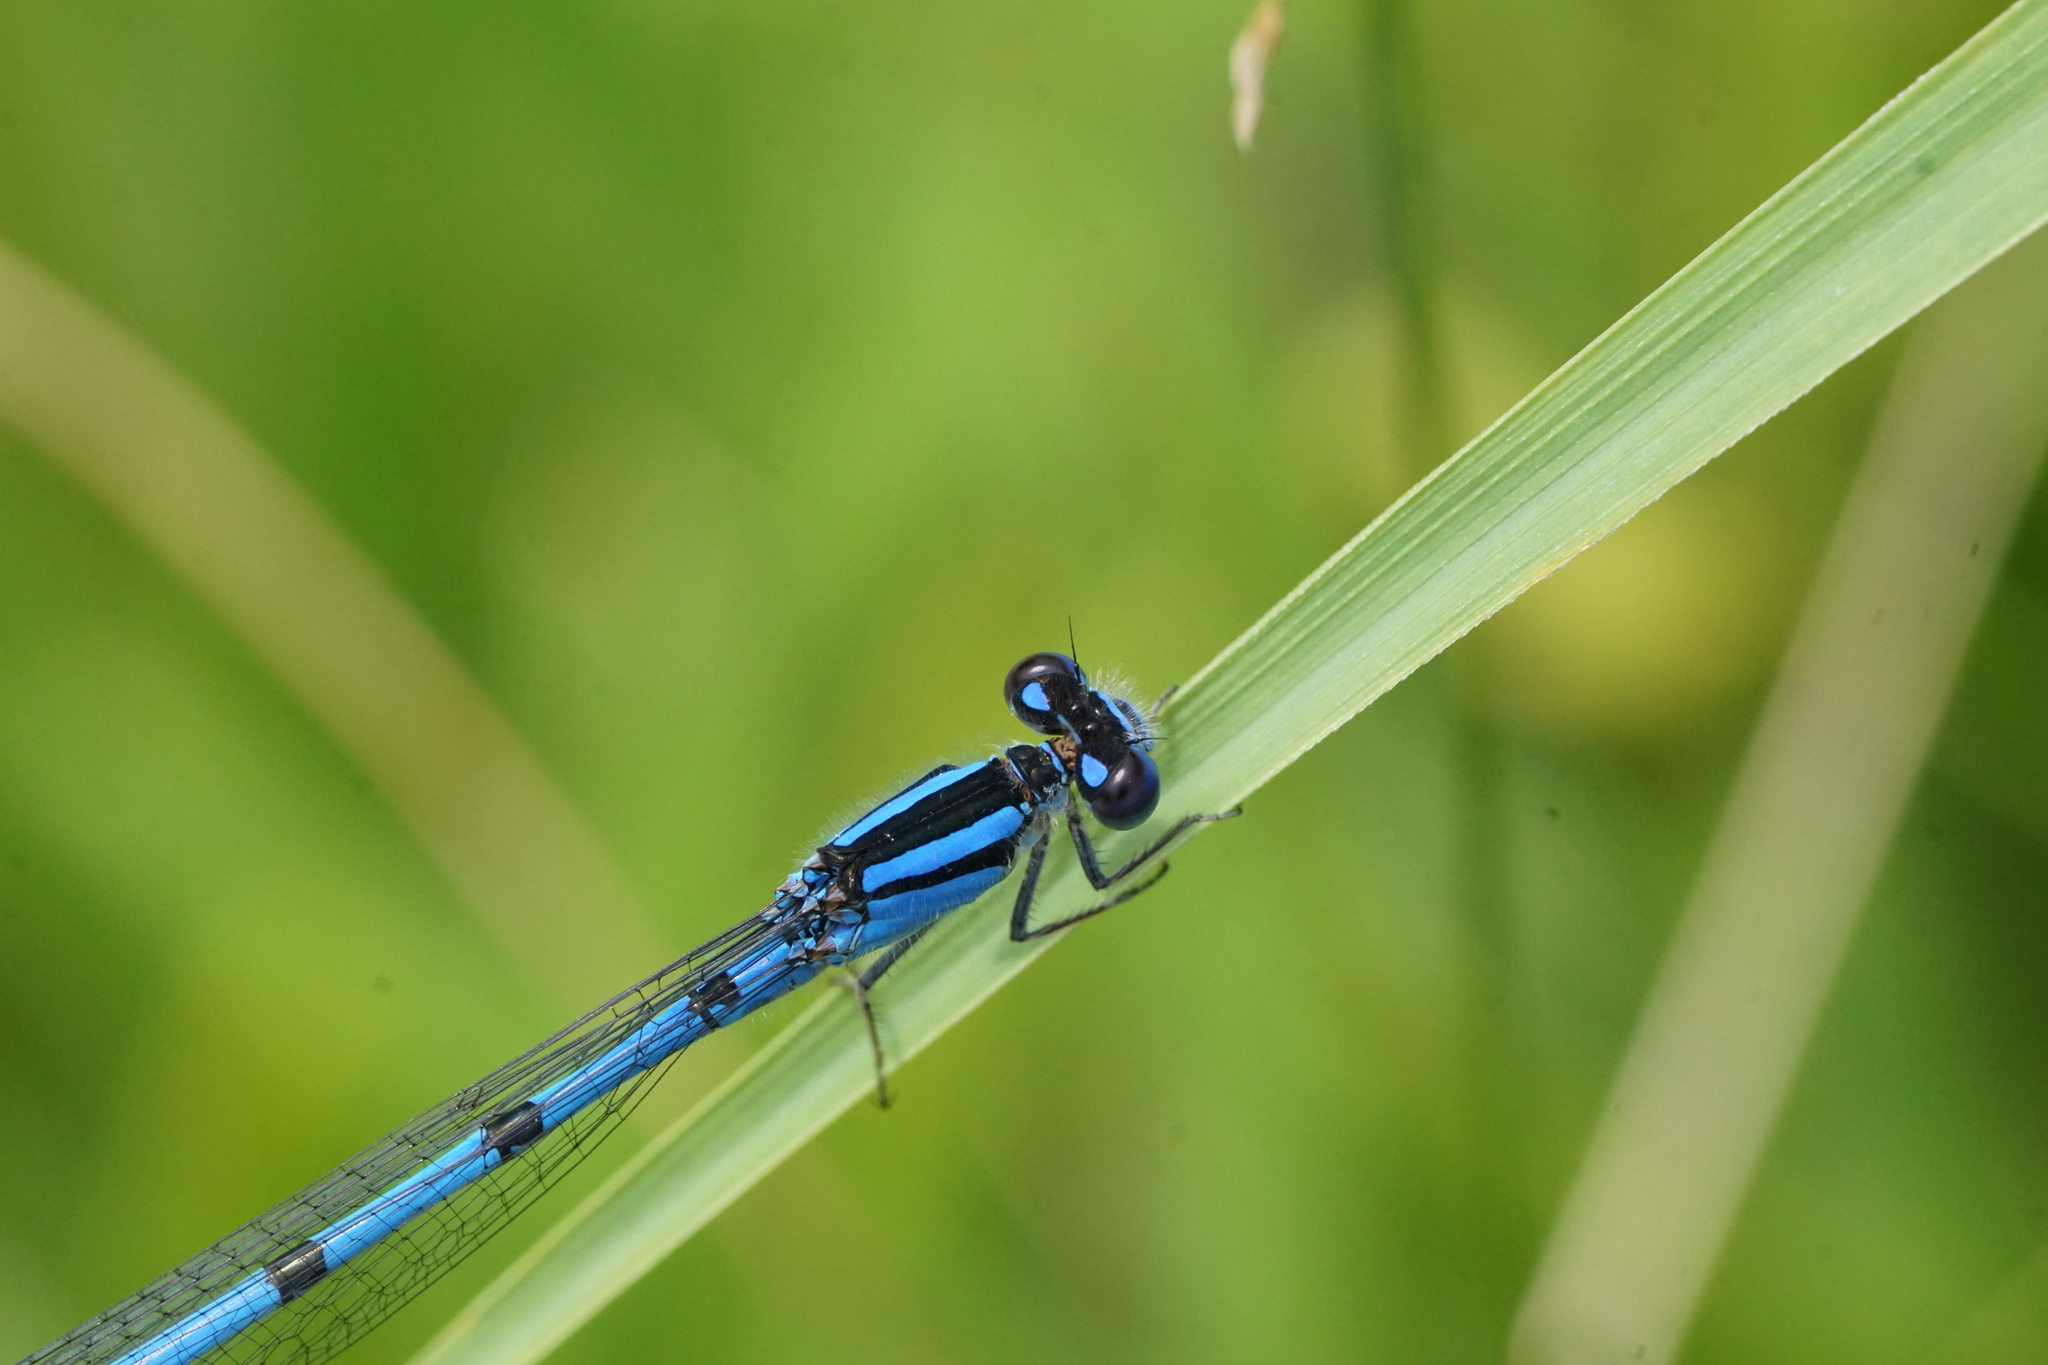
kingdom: Animalia
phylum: Arthropoda
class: Insecta
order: Odonata
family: Coenagrionidae
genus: Enallagma
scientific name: Enallagma civile
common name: Damselfly
